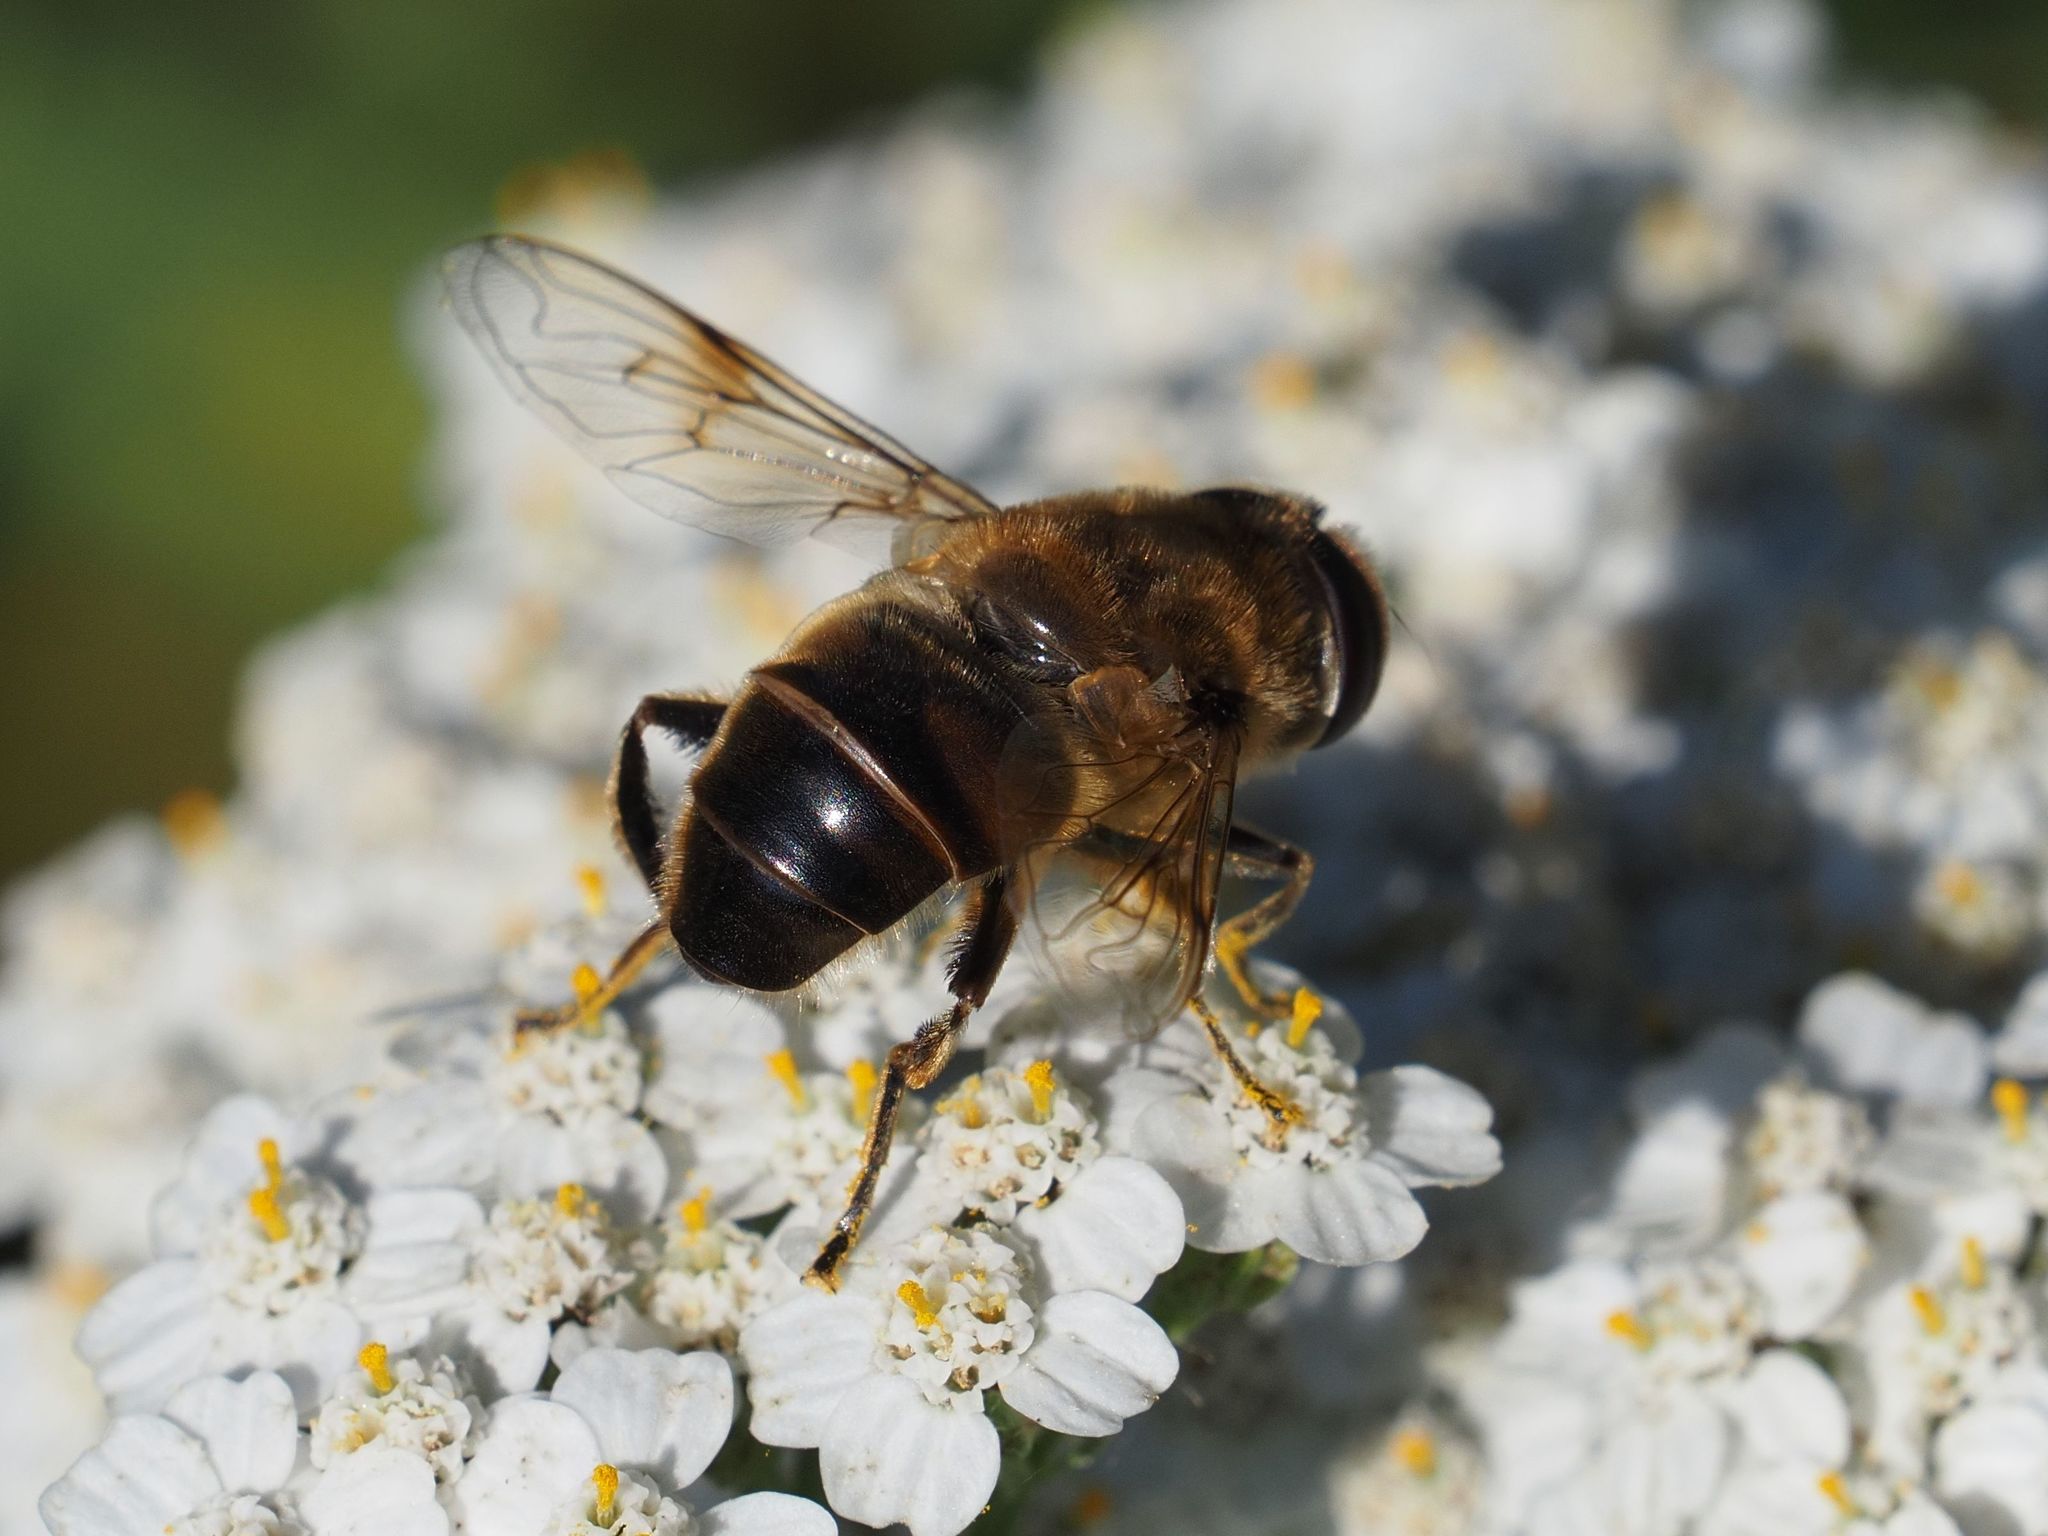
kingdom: Animalia
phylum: Arthropoda
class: Insecta
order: Diptera
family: Syrphidae
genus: Eristalis
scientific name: Eristalis tenax
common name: Drone fly
